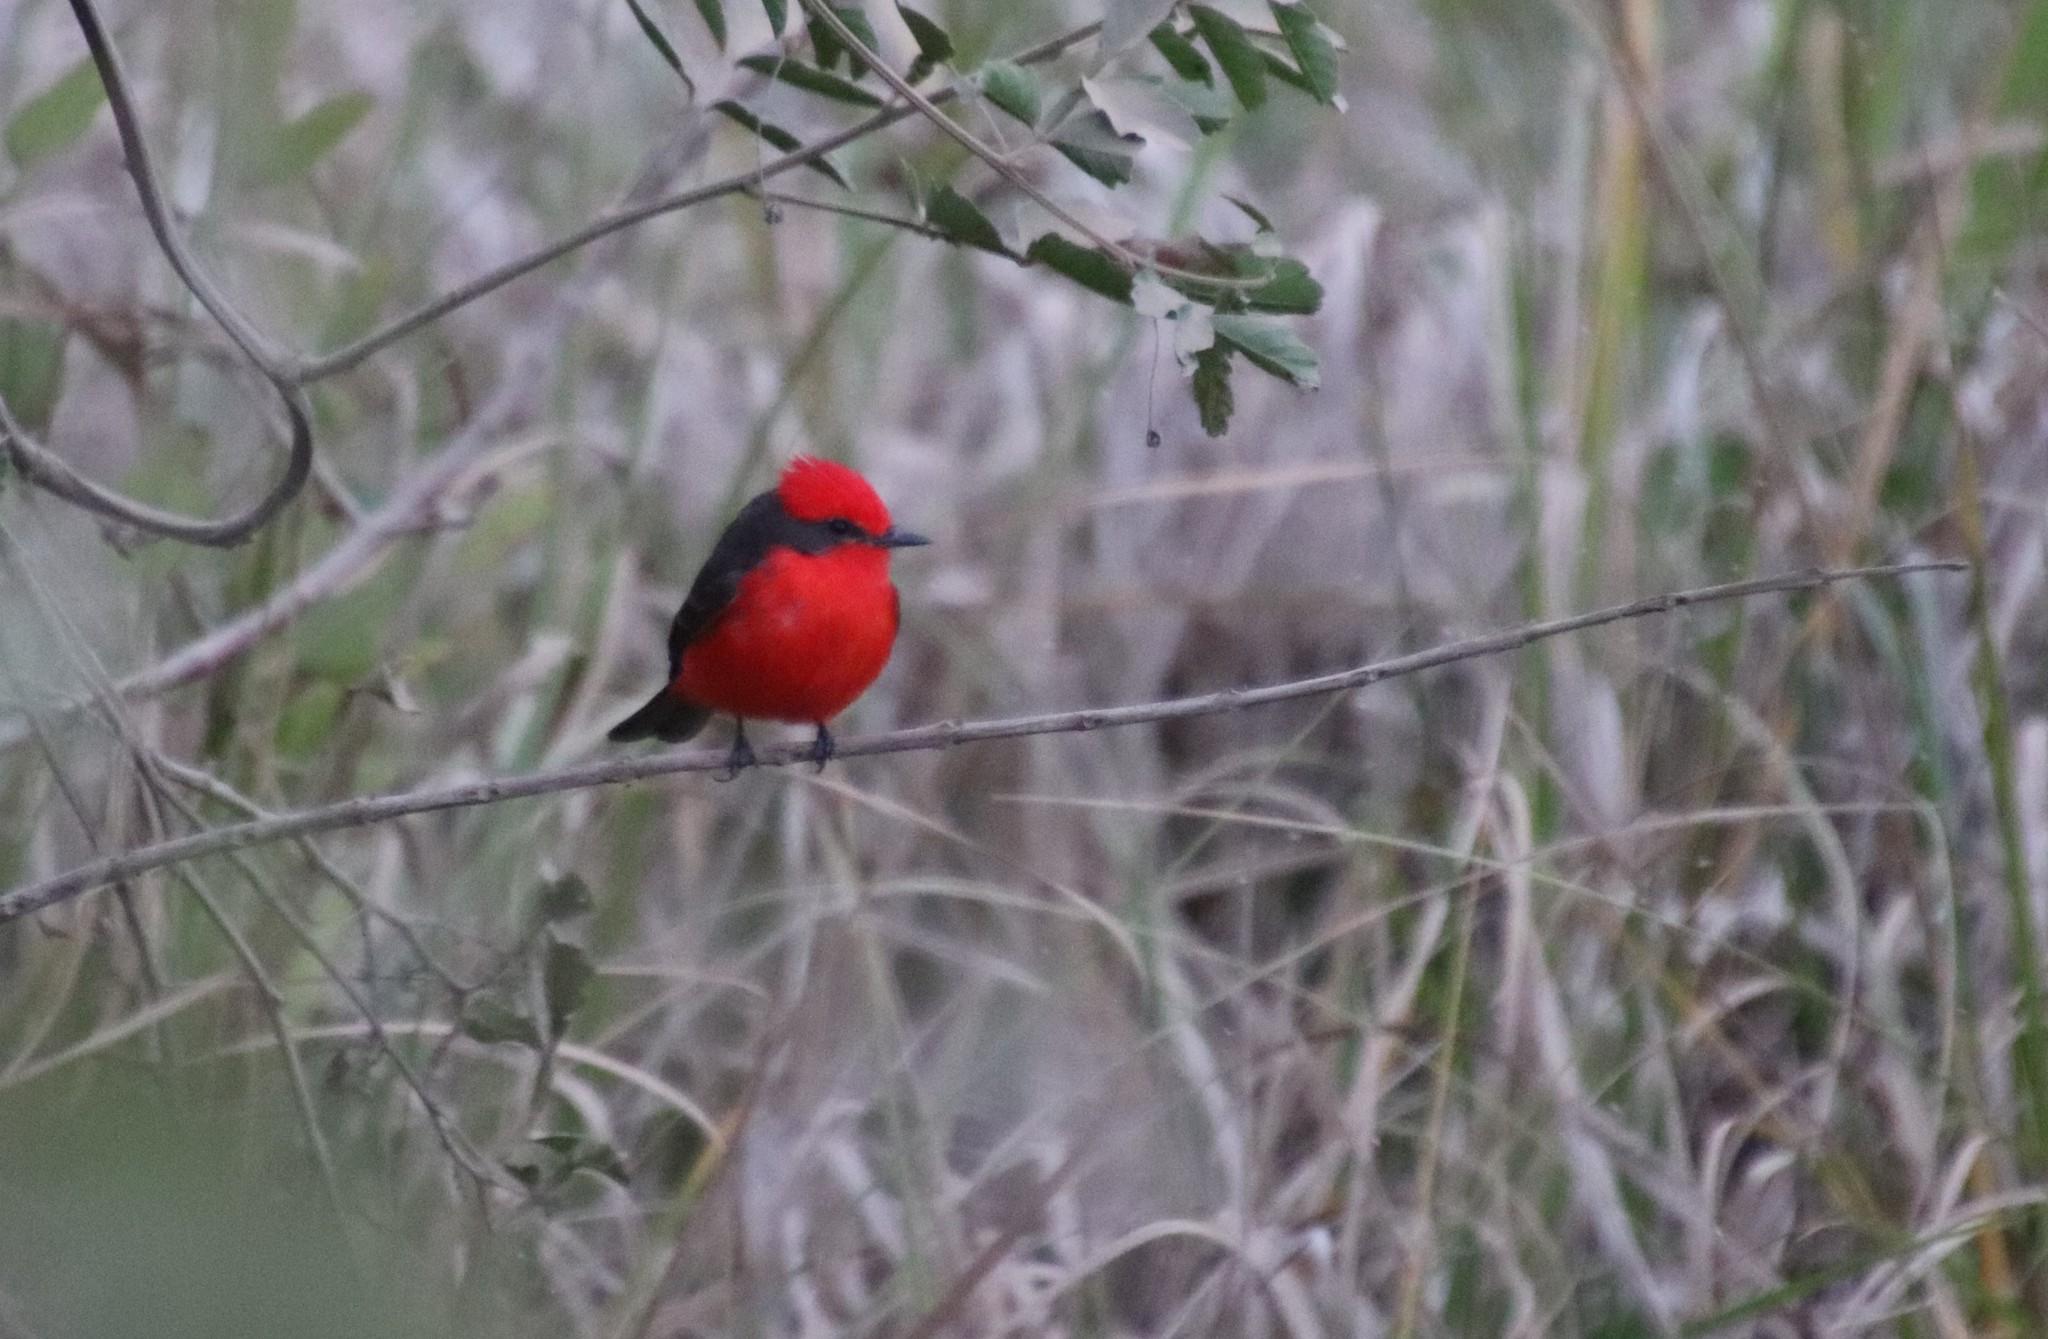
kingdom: Animalia
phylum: Chordata
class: Aves
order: Passeriformes
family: Tyrannidae
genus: Pyrocephalus
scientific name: Pyrocephalus rubinus
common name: Vermilion flycatcher
